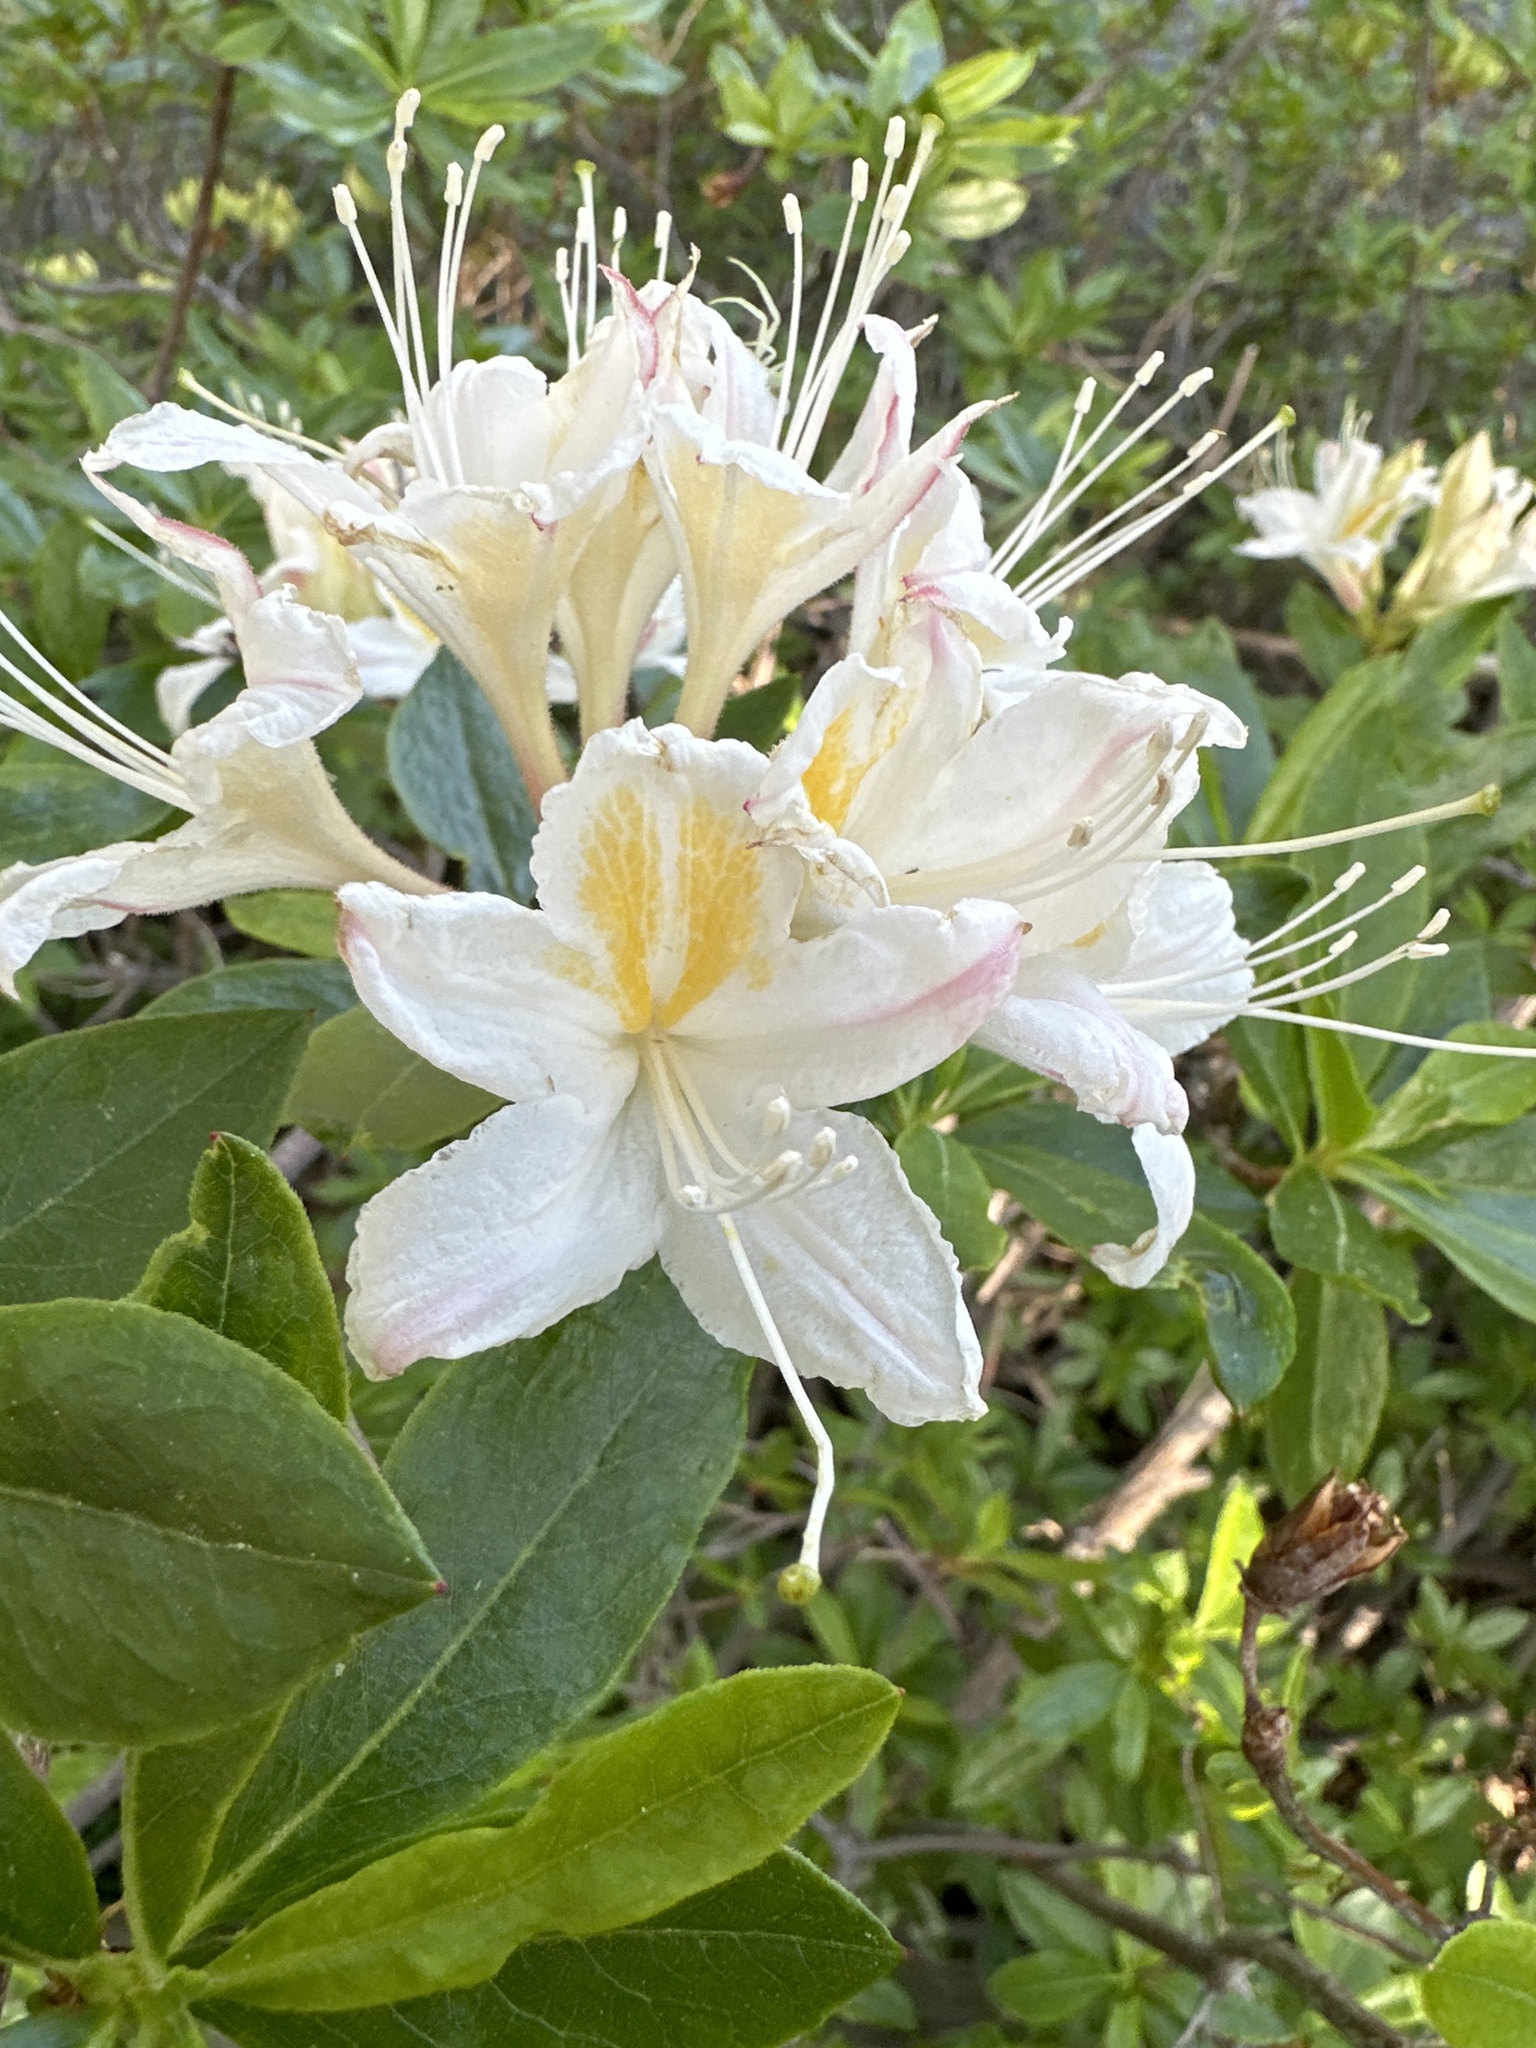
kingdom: Plantae
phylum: Tracheophyta
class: Magnoliopsida
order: Ericales
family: Ericaceae
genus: Rhododendron
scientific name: Rhododendron occidentale
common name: Western azalea
